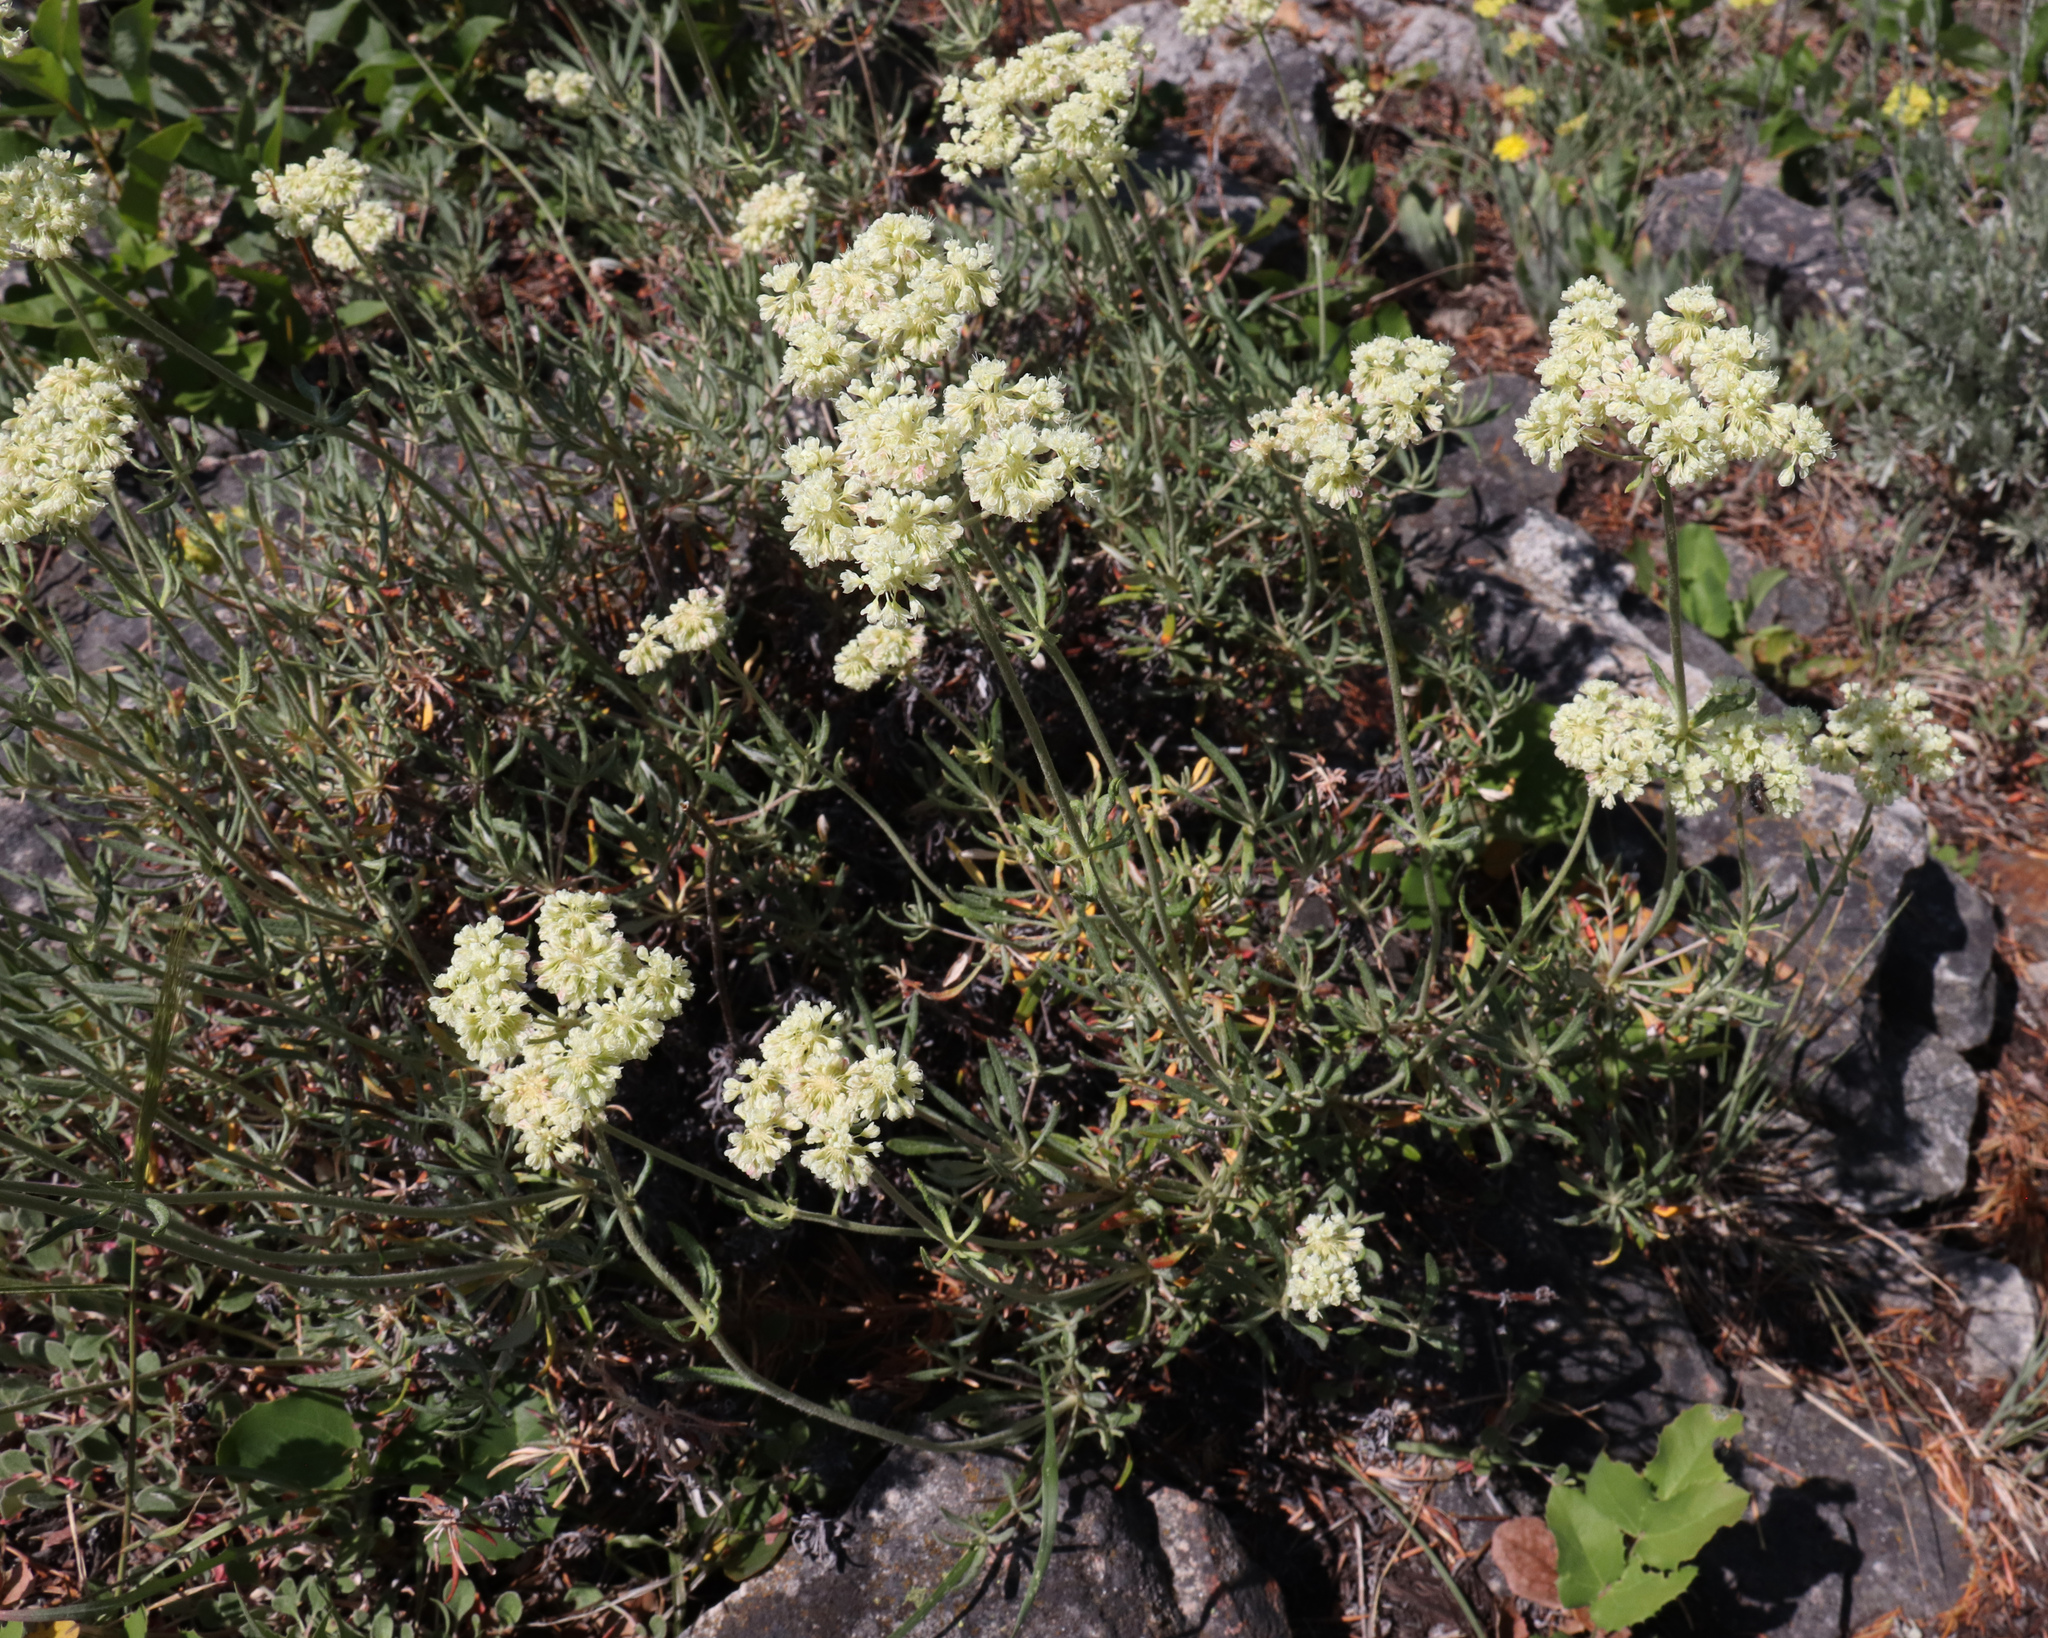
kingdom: Plantae
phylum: Tracheophyta
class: Magnoliopsida
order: Caryophyllales
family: Polygonaceae
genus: Eriogonum
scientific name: Eriogonum heracleoides
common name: Wyeth's buckwheat
